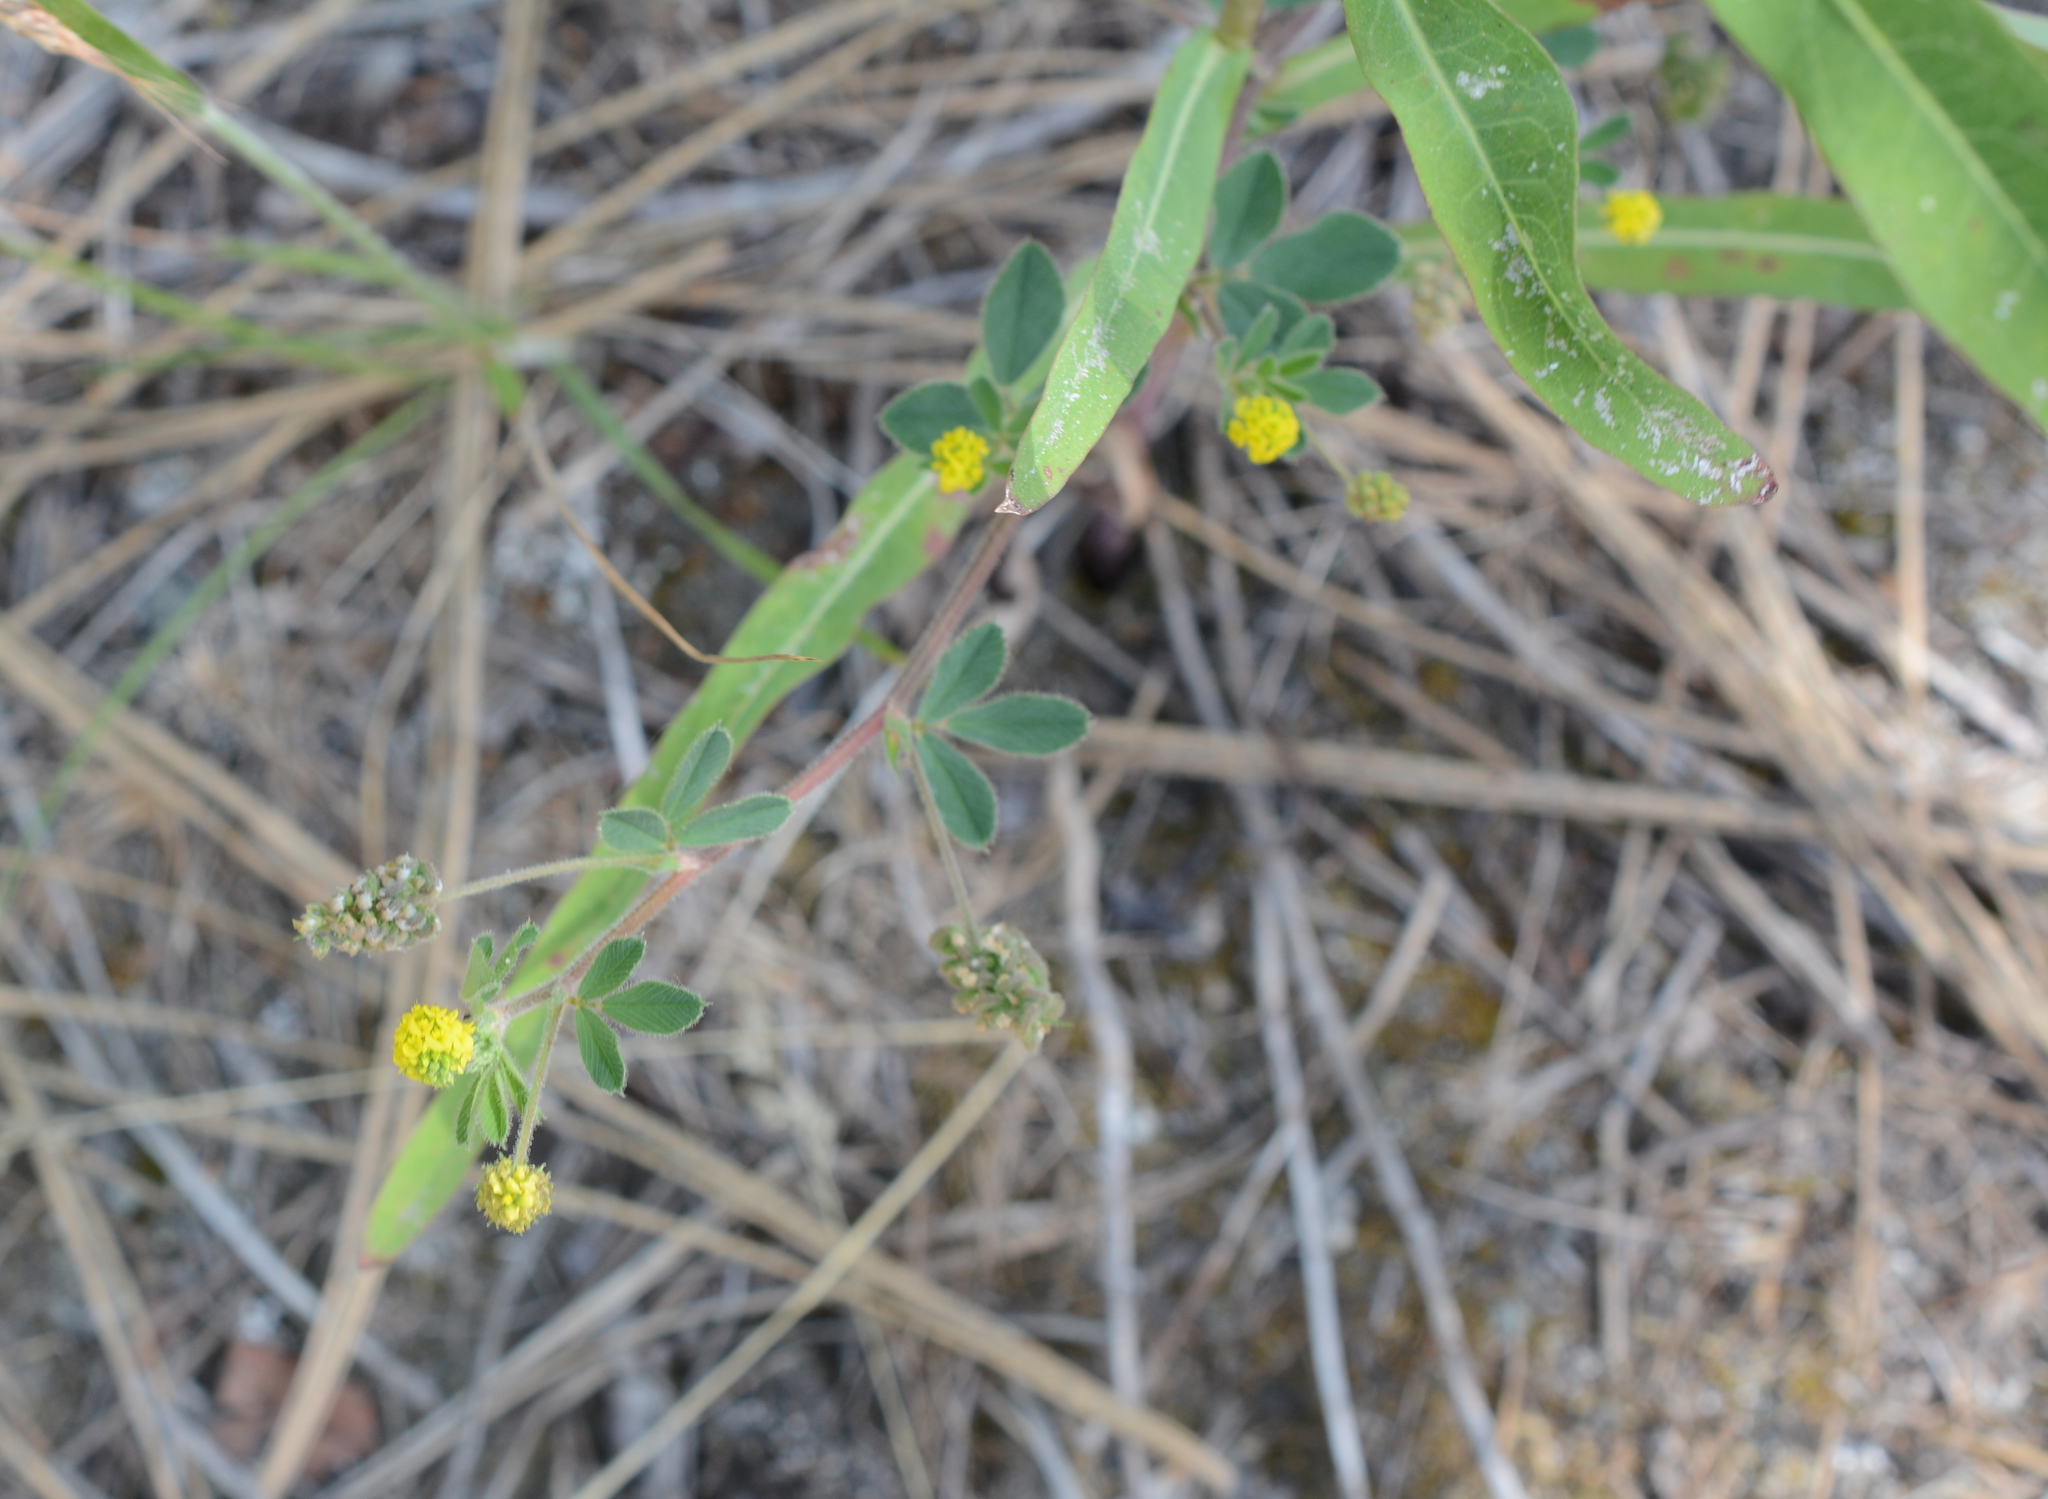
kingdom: Plantae
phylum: Tracheophyta
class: Magnoliopsida
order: Fabales
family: Fabaceae
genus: Medicago
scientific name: Medicago lupulina
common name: Black medick
